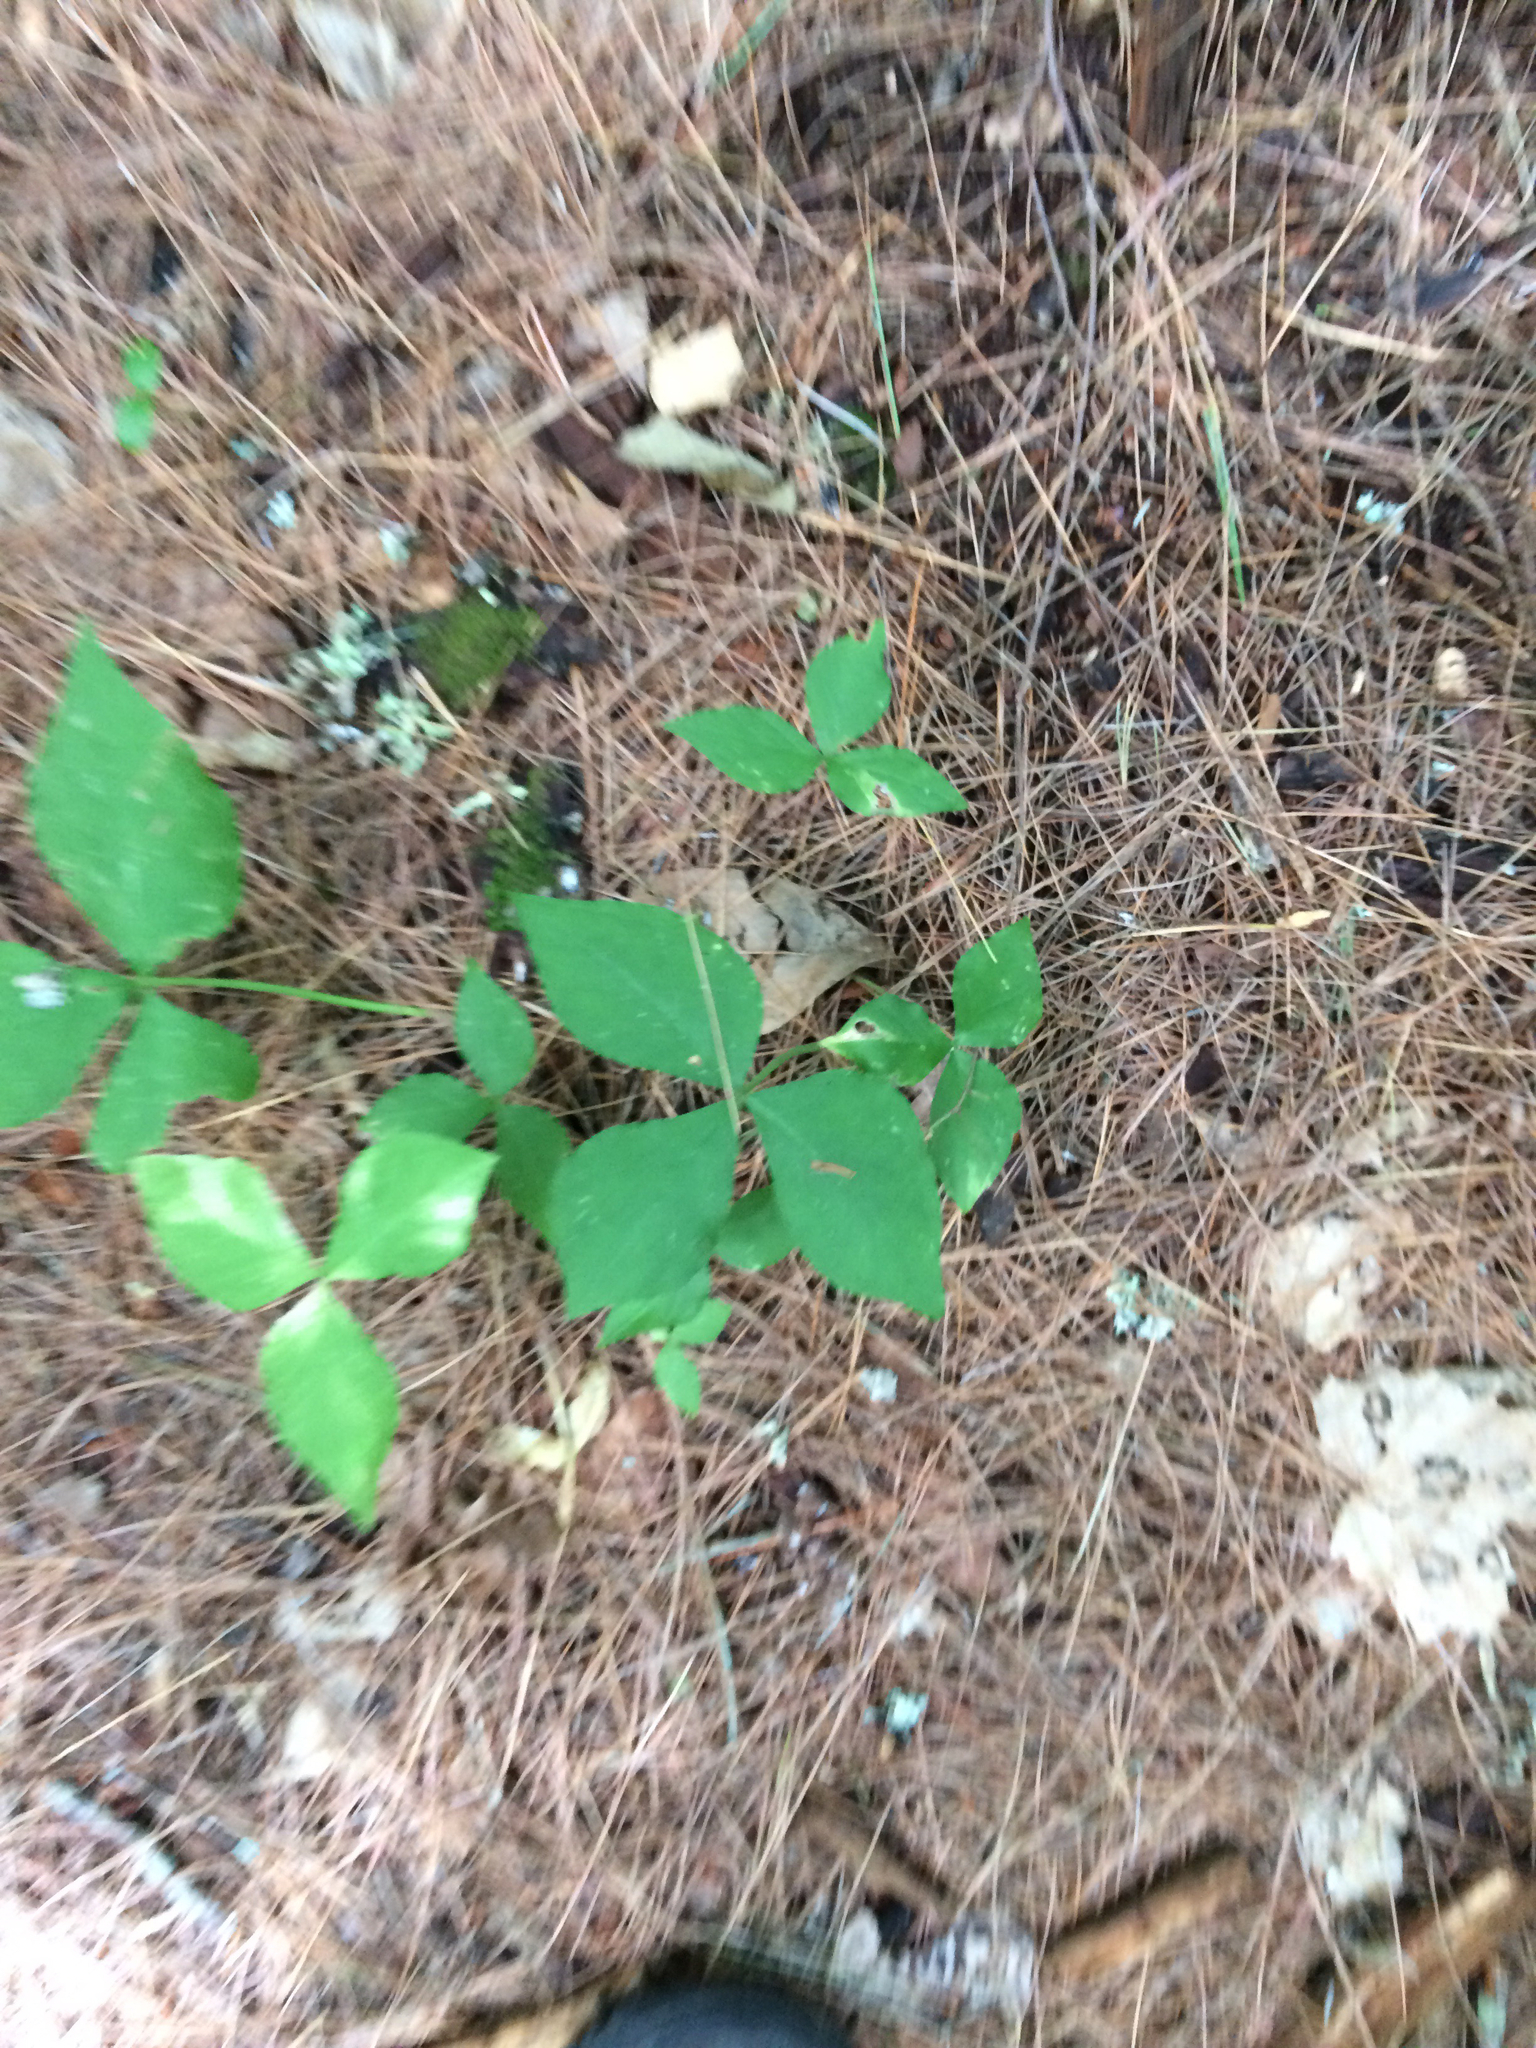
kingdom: Plantae
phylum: Tracheophyta
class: Liliopsida
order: Alismatales
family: Araceae
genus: Arisaema
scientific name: Arisaema triphyllum
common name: Jack-in-the-pulpit
